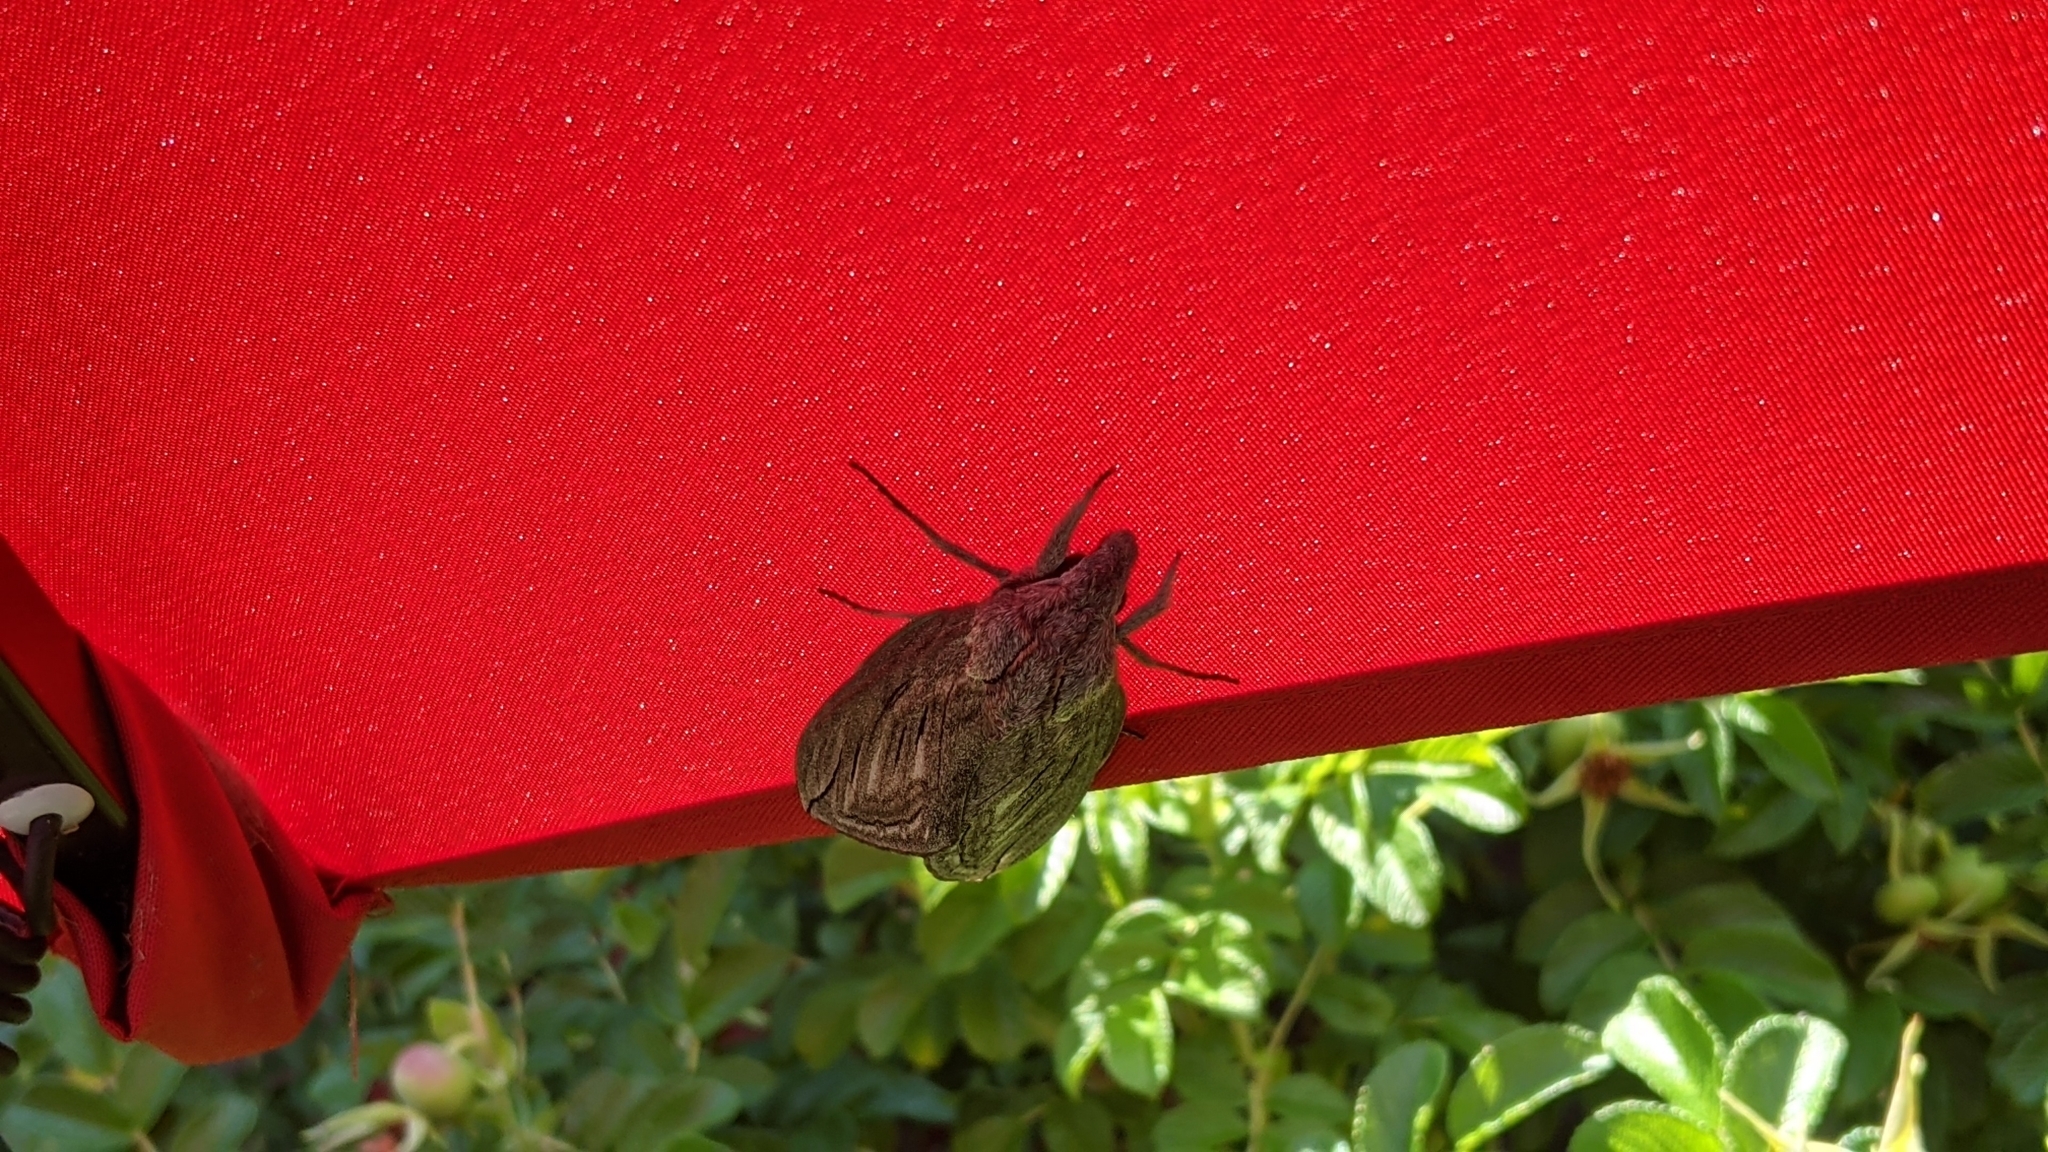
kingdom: Animalia
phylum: Arthropoda
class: Insecta
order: Lepidoptera
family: Sphingidae
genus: Sphinx
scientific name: Sphinx canadensis
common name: Canadian sphinx
